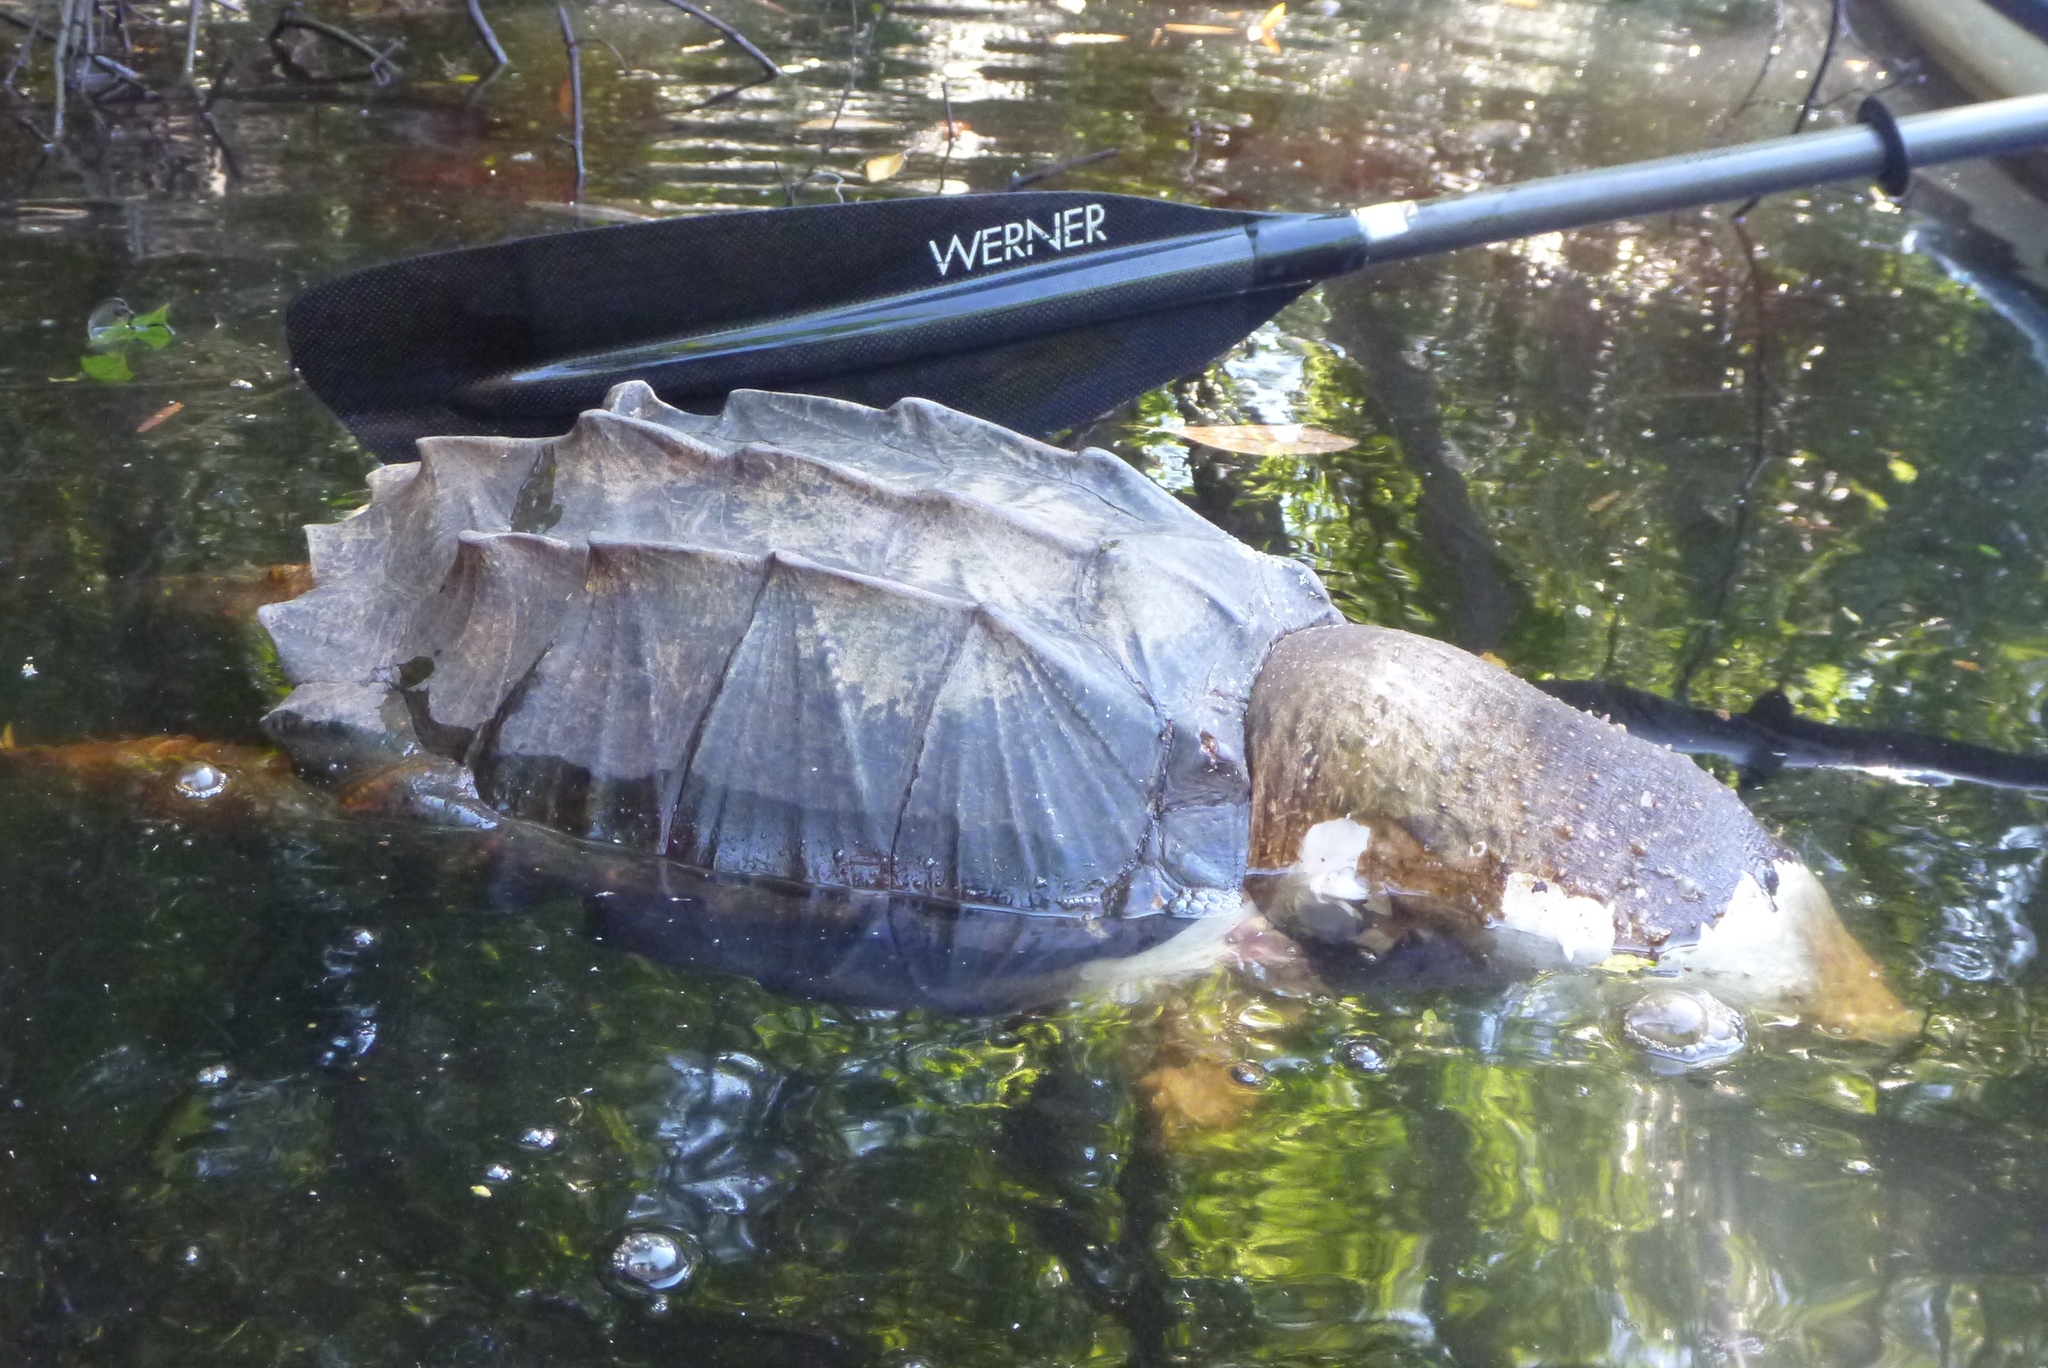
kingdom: Animalia
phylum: Chordata
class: Testudines
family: Chelydridae
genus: Macrochelys
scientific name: Macrochelys temminckii
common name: Alligator snapping turtle
